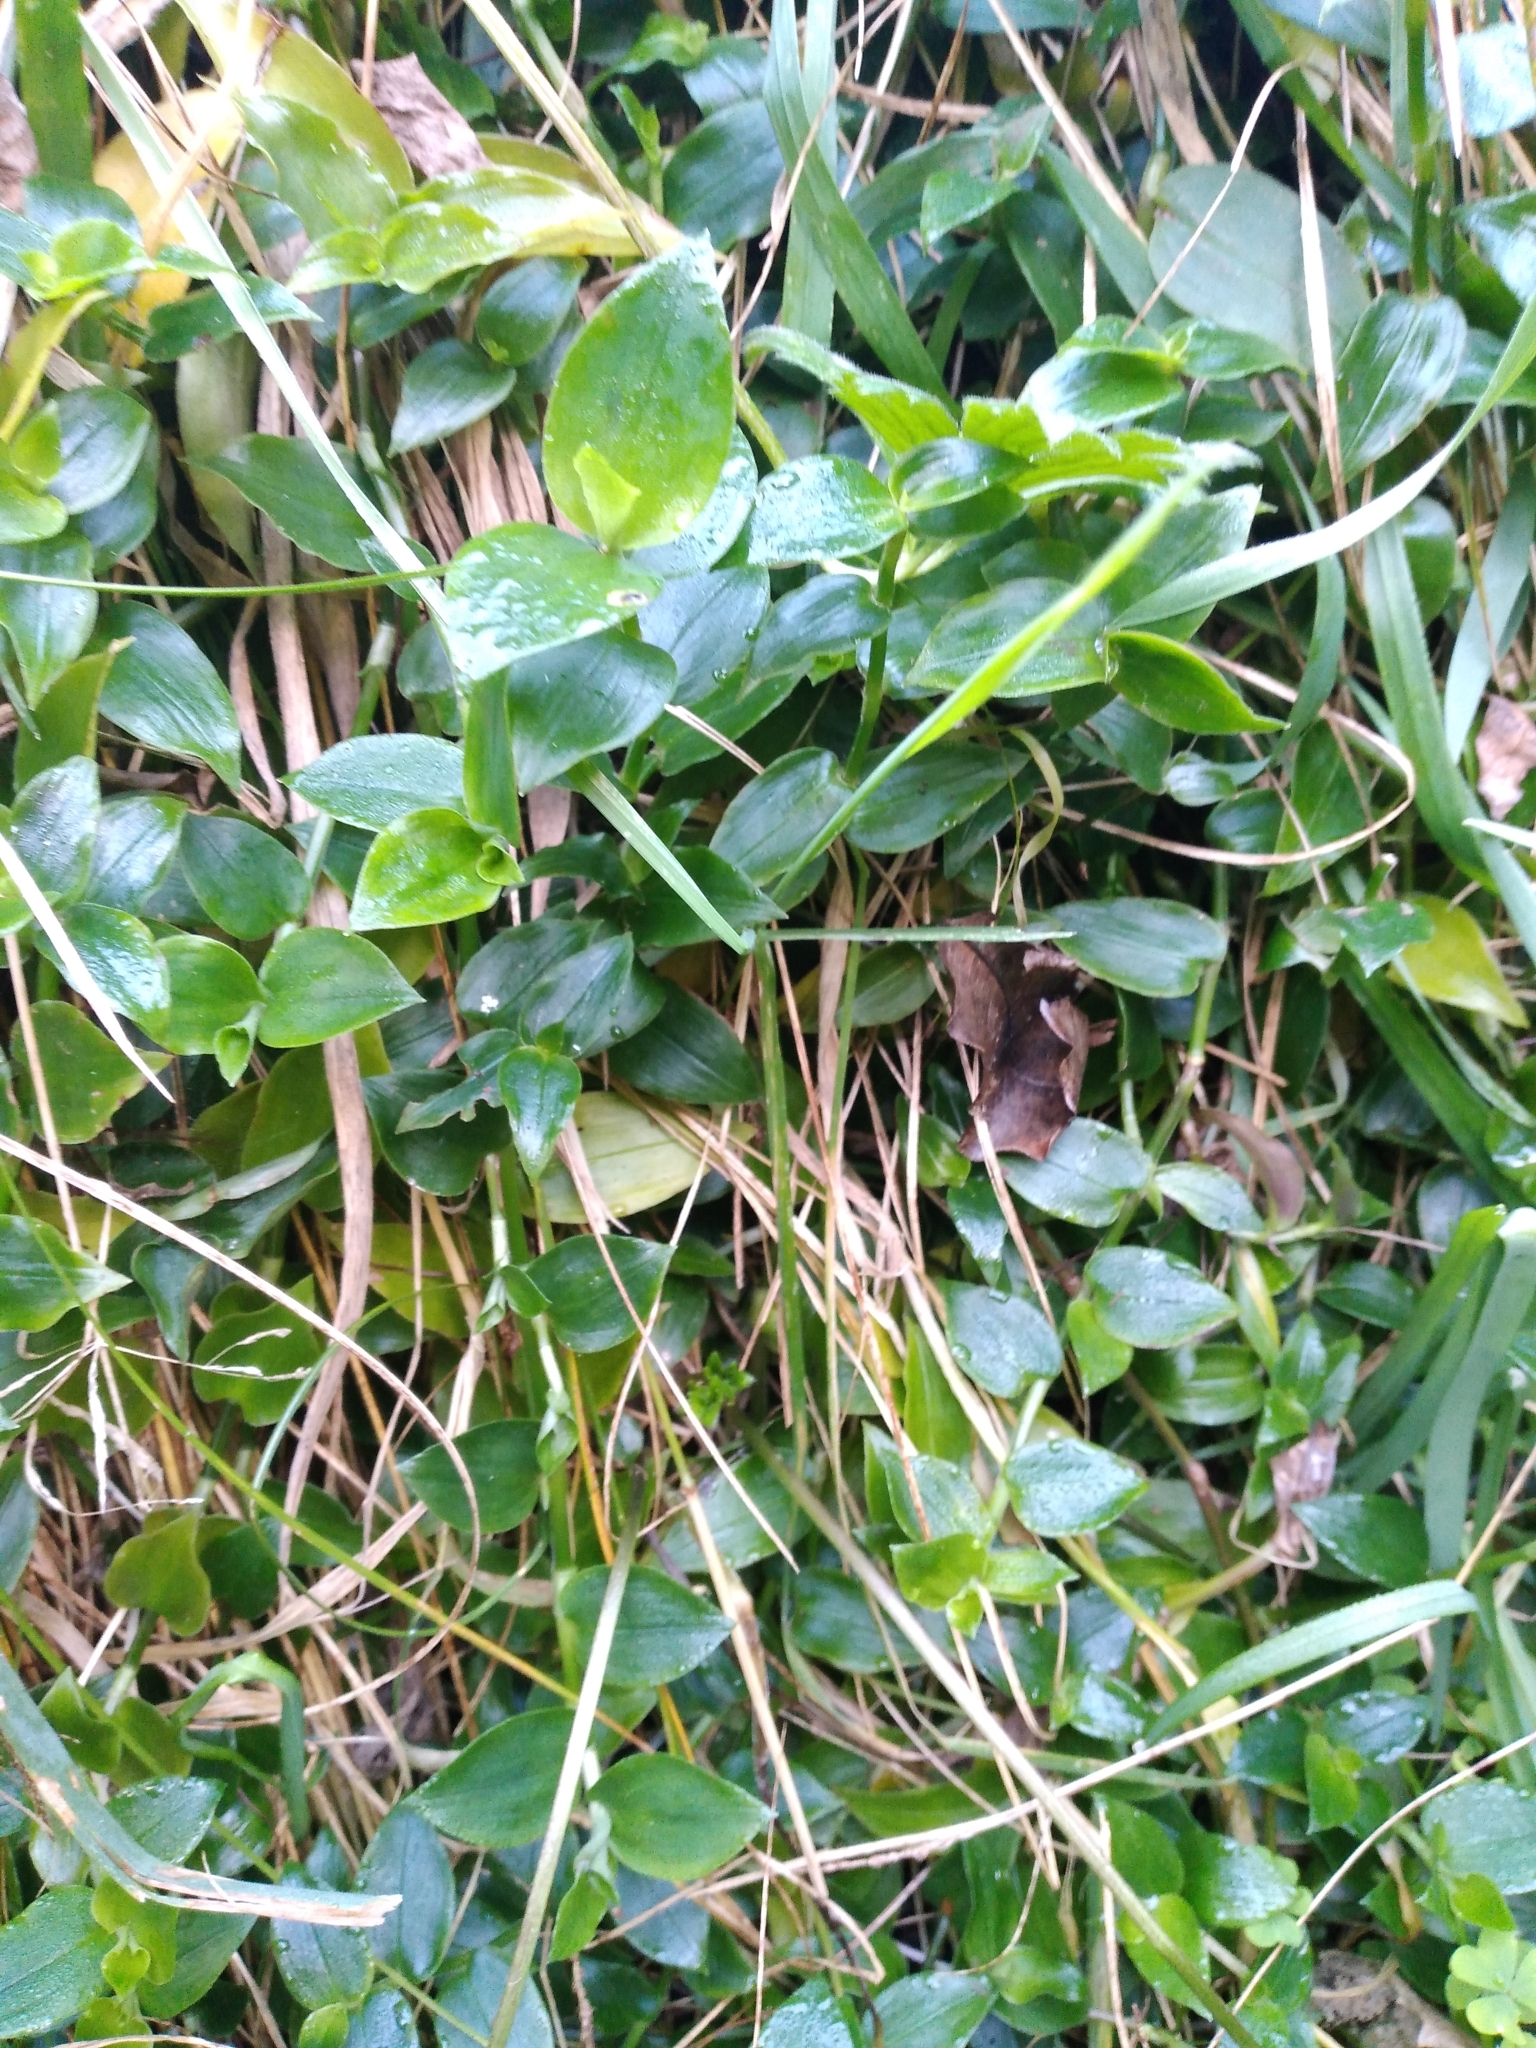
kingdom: Plantae
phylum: Tracheophyta
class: Liliopsida
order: Commelinales
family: Commelinaceae
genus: Tradescantia
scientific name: Tradescantia fluminensis
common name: Wandering-jew
